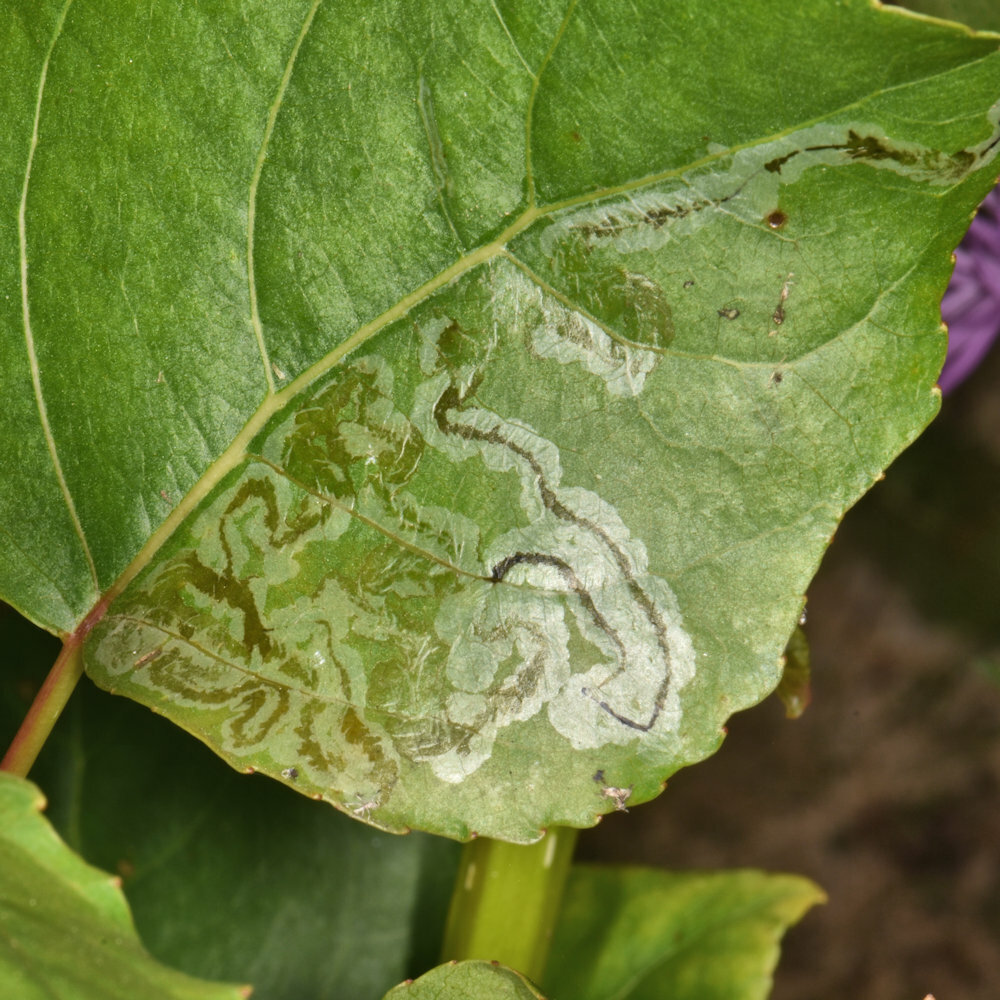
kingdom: Animalia
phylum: Arthropoda
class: Insecta
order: Lepidoptera
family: Gracillariidae
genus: Phyllocnistis
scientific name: Phyllocnistis populiella
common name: Aspen serpentine leafminer moth
